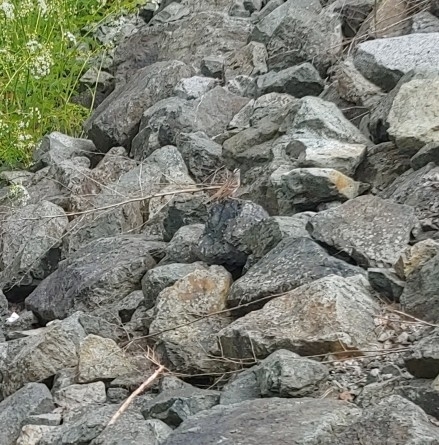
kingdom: Animalia
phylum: Chordata
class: Aves
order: Passeriformes
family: Passerellidae
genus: Zonotrichia
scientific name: Zonotrichia leucophrys
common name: White-crowned sparrow
